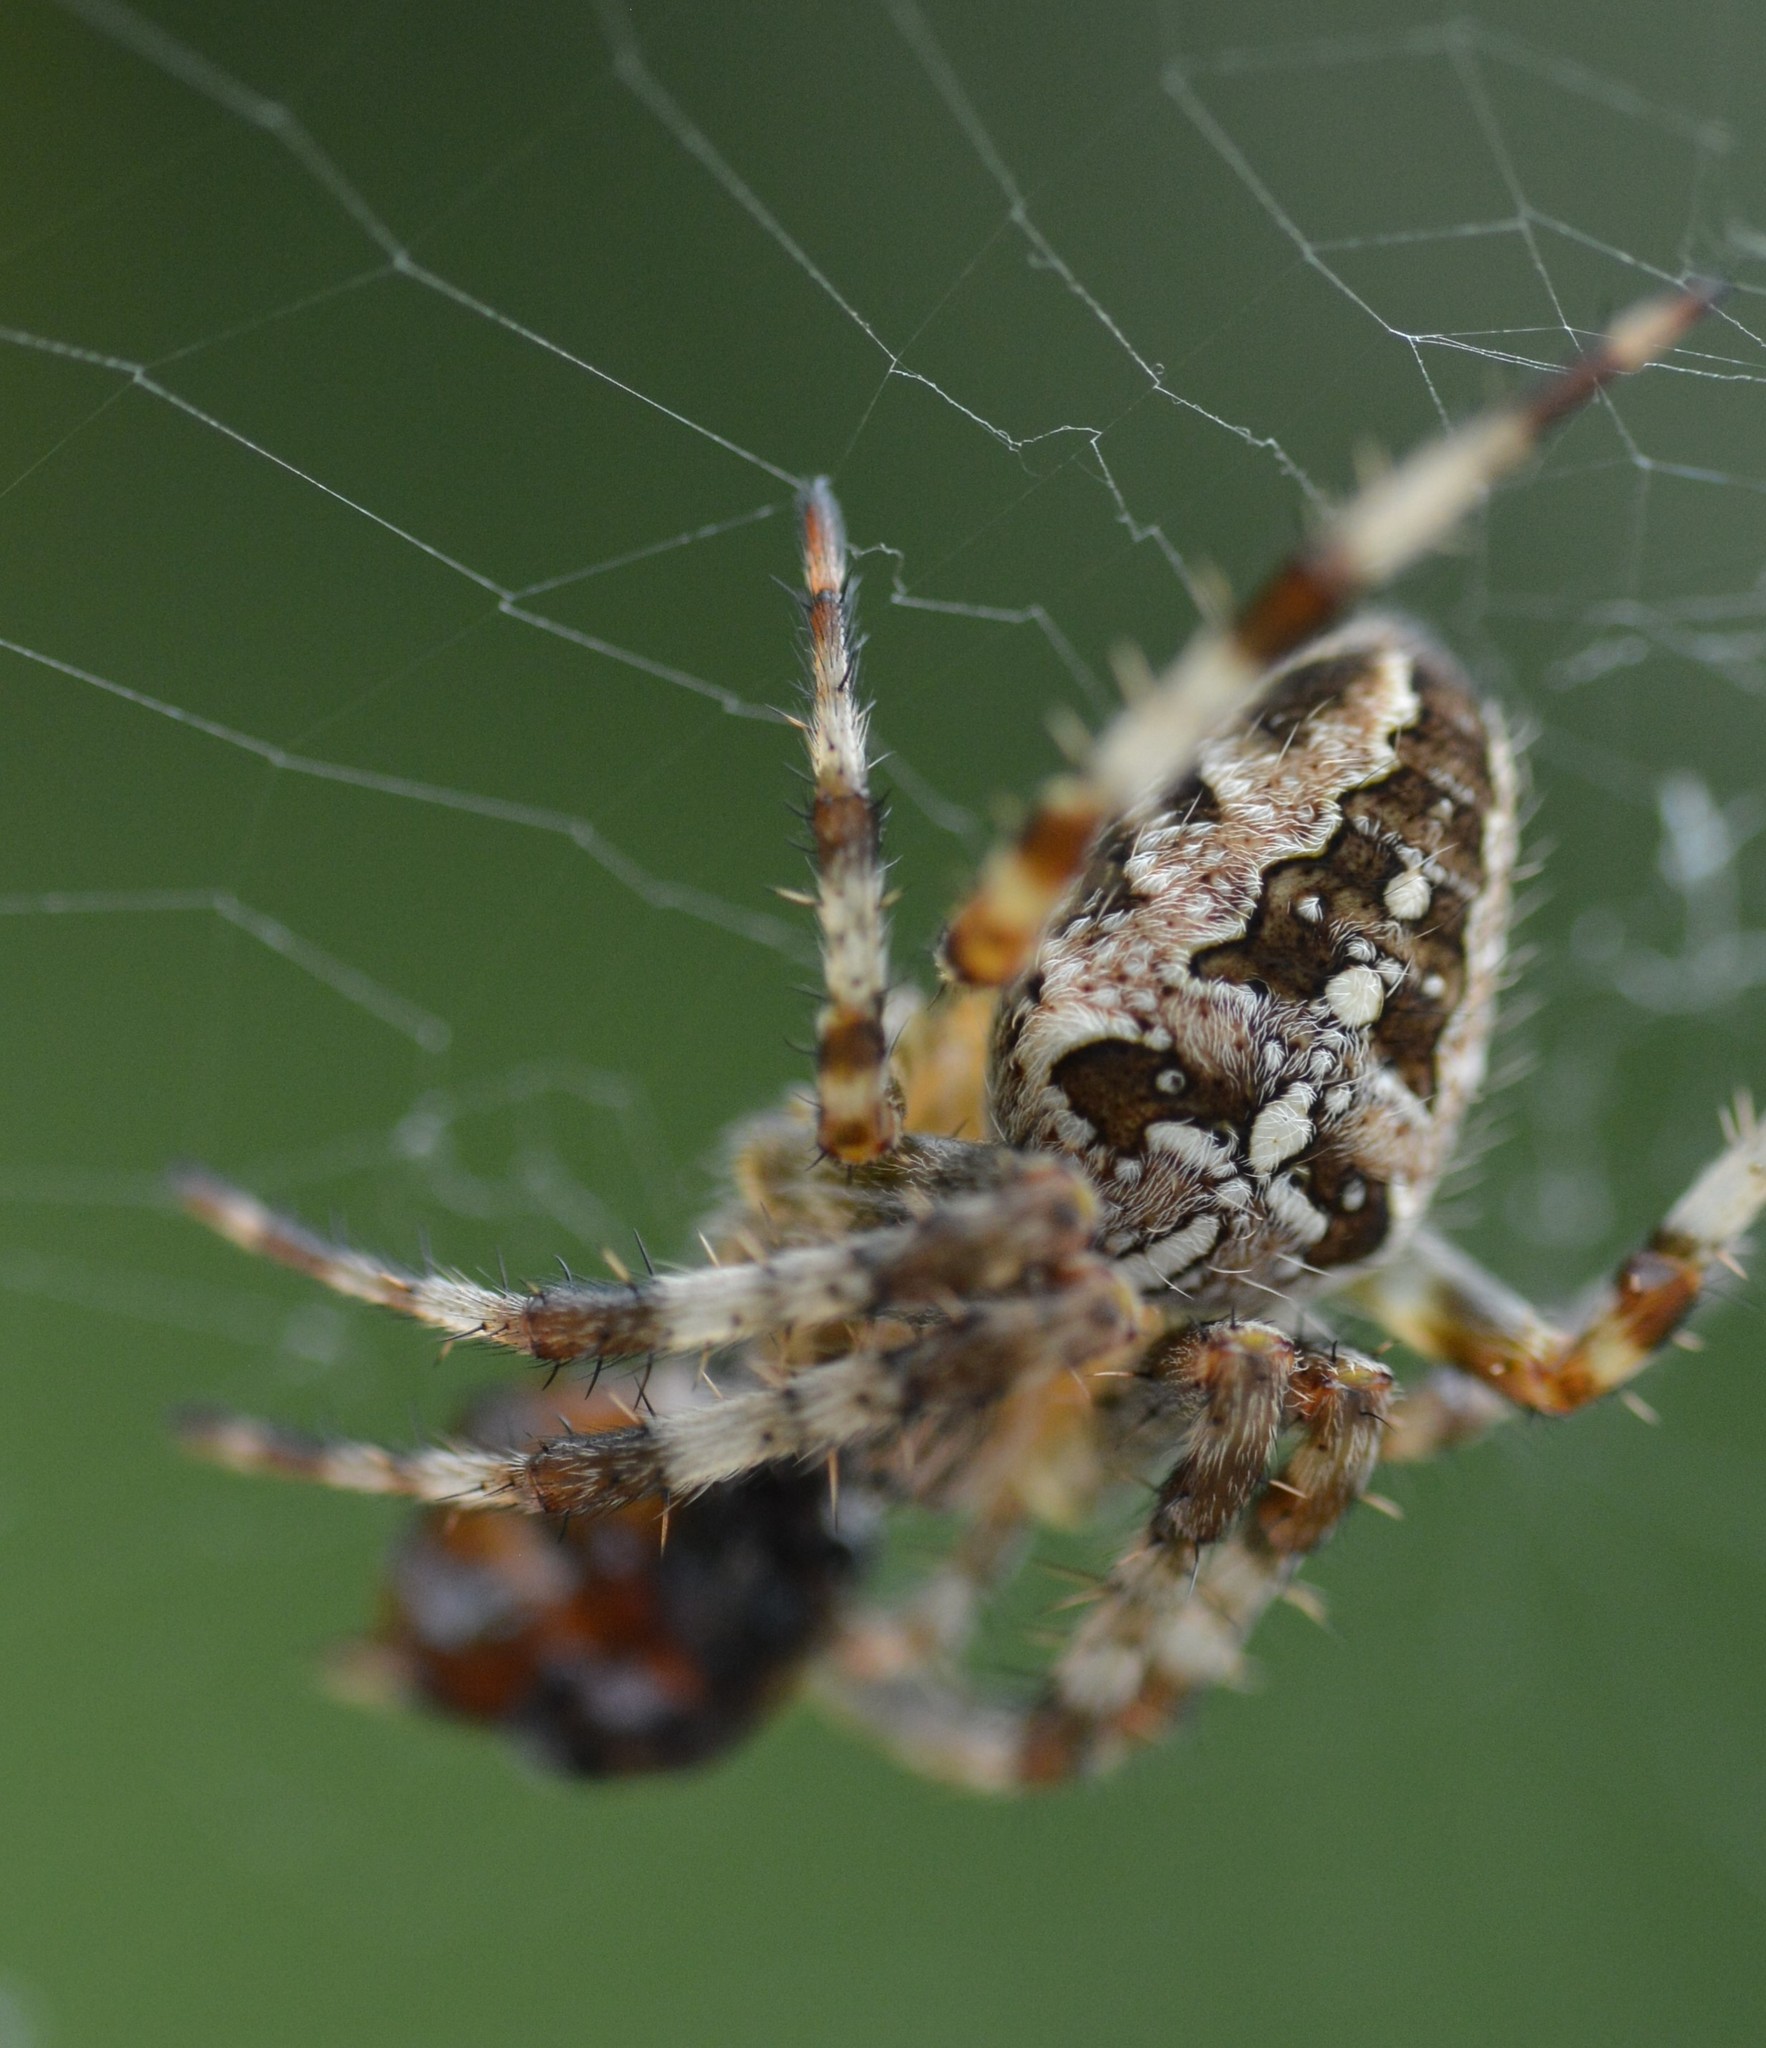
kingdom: Animalia
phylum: Arthropoda
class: Arachnida
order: Araneae
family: Araneidae
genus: Araneus
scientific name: Araneus diadematus
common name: Cross orbweaver
